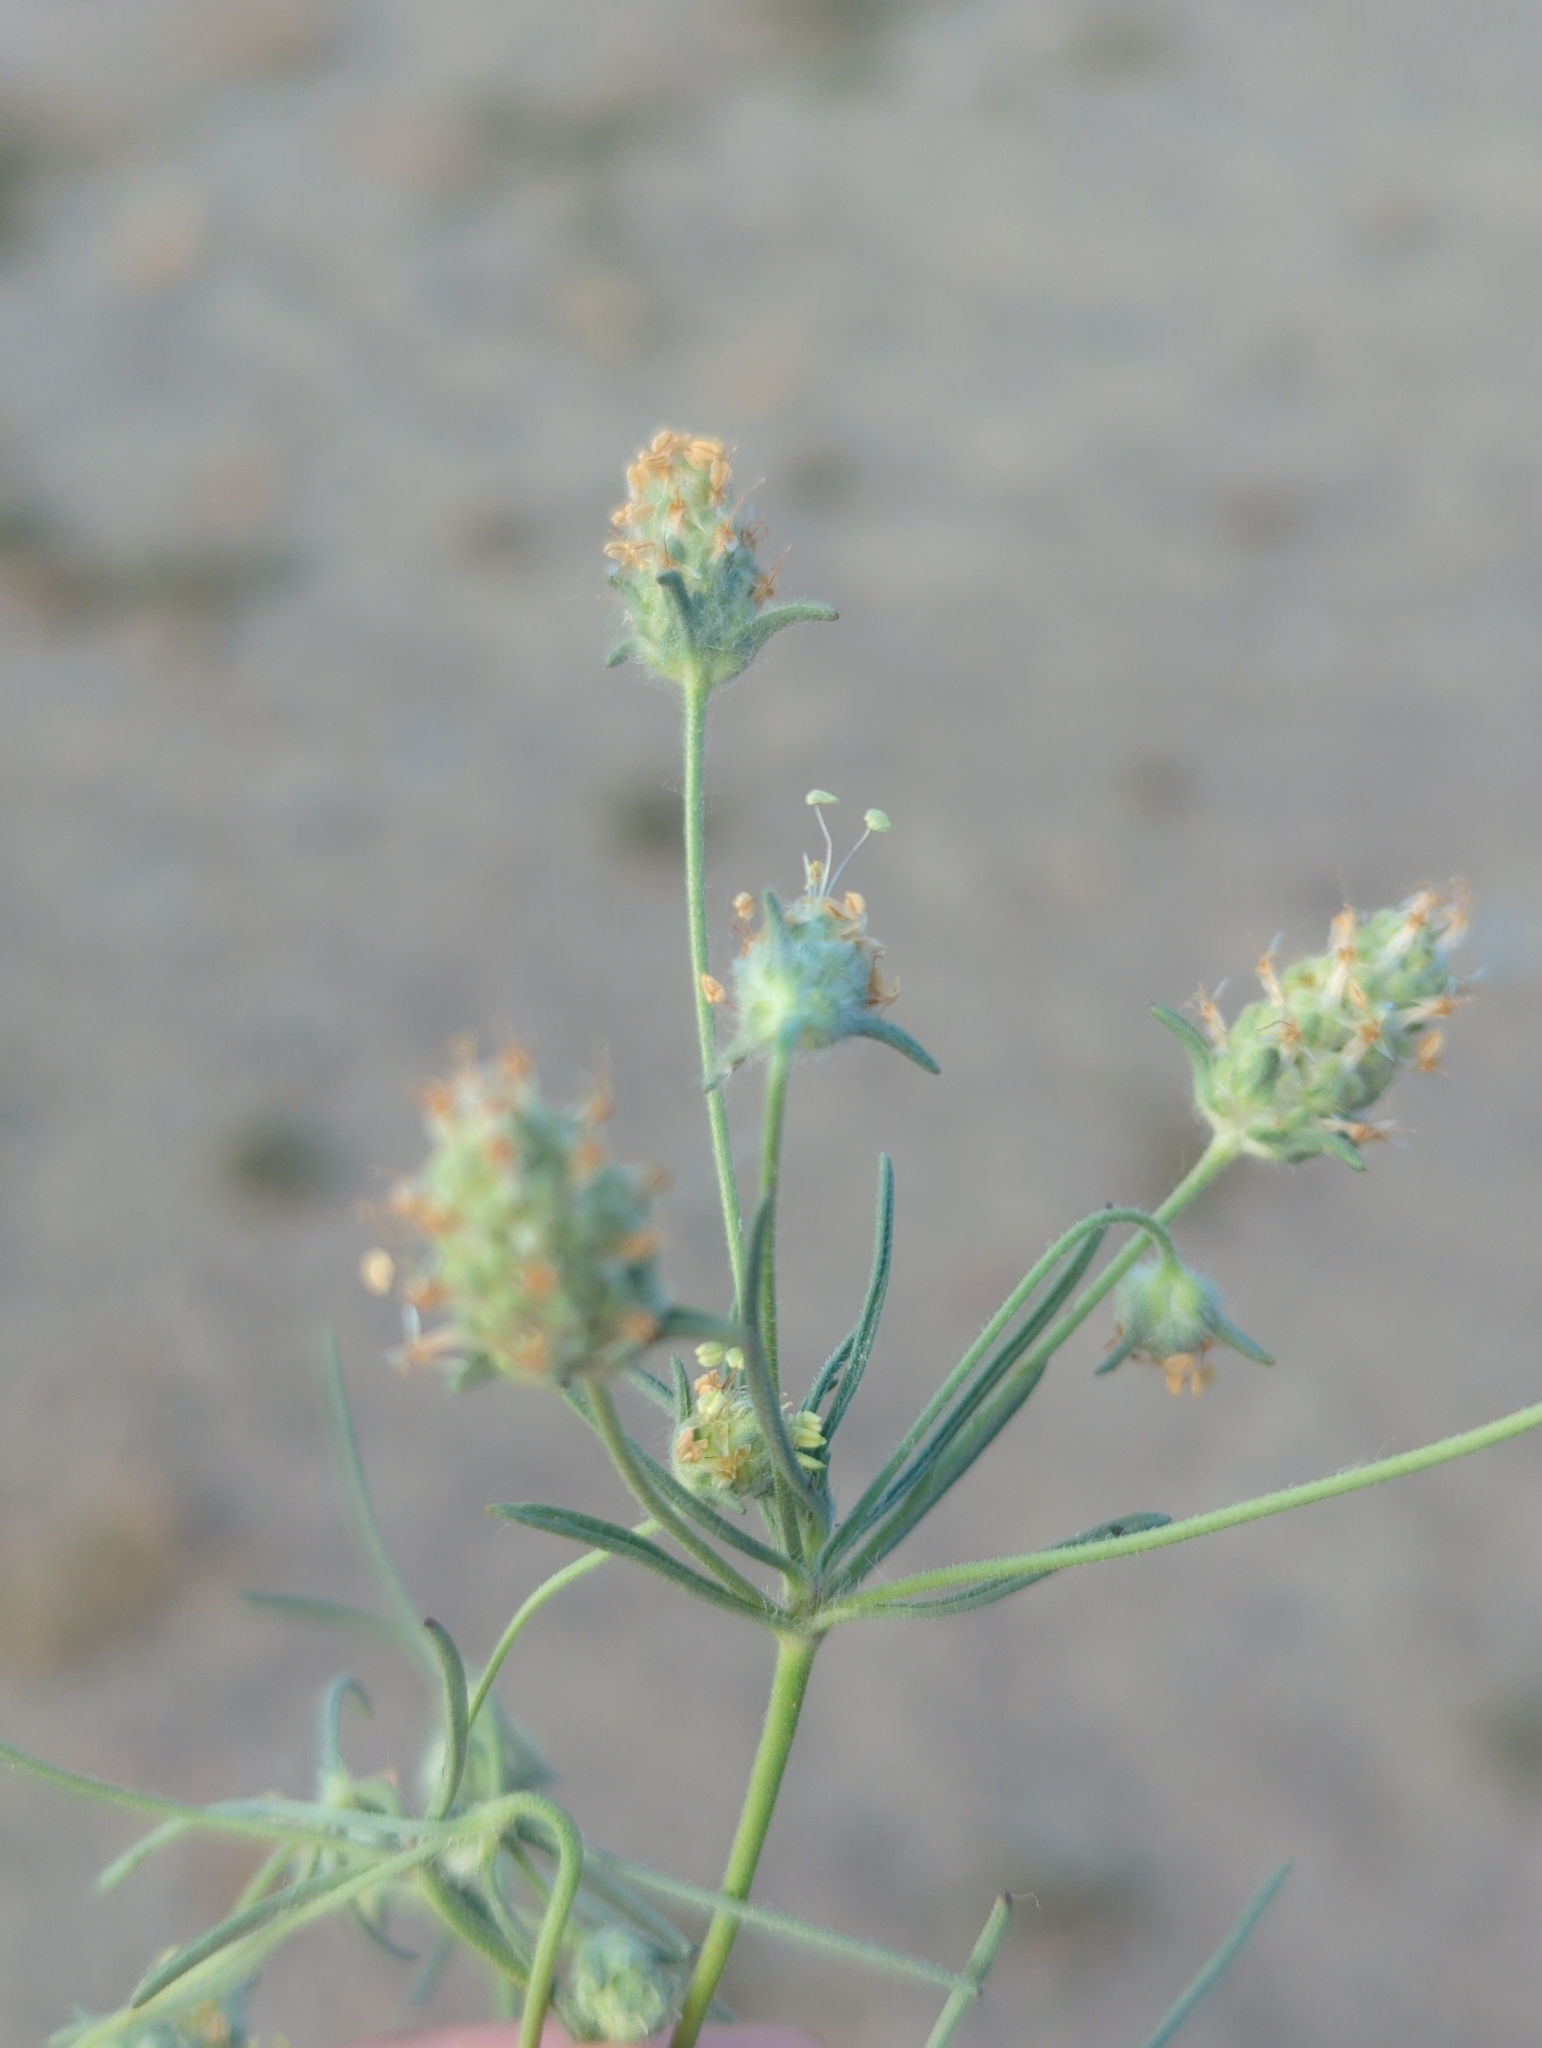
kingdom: Plantae
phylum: Tracheophyta
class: Magnoliopsida
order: Lamiales
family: Plantaginaceae
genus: Plantago
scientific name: Plantago arenaria
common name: Branched plantain
